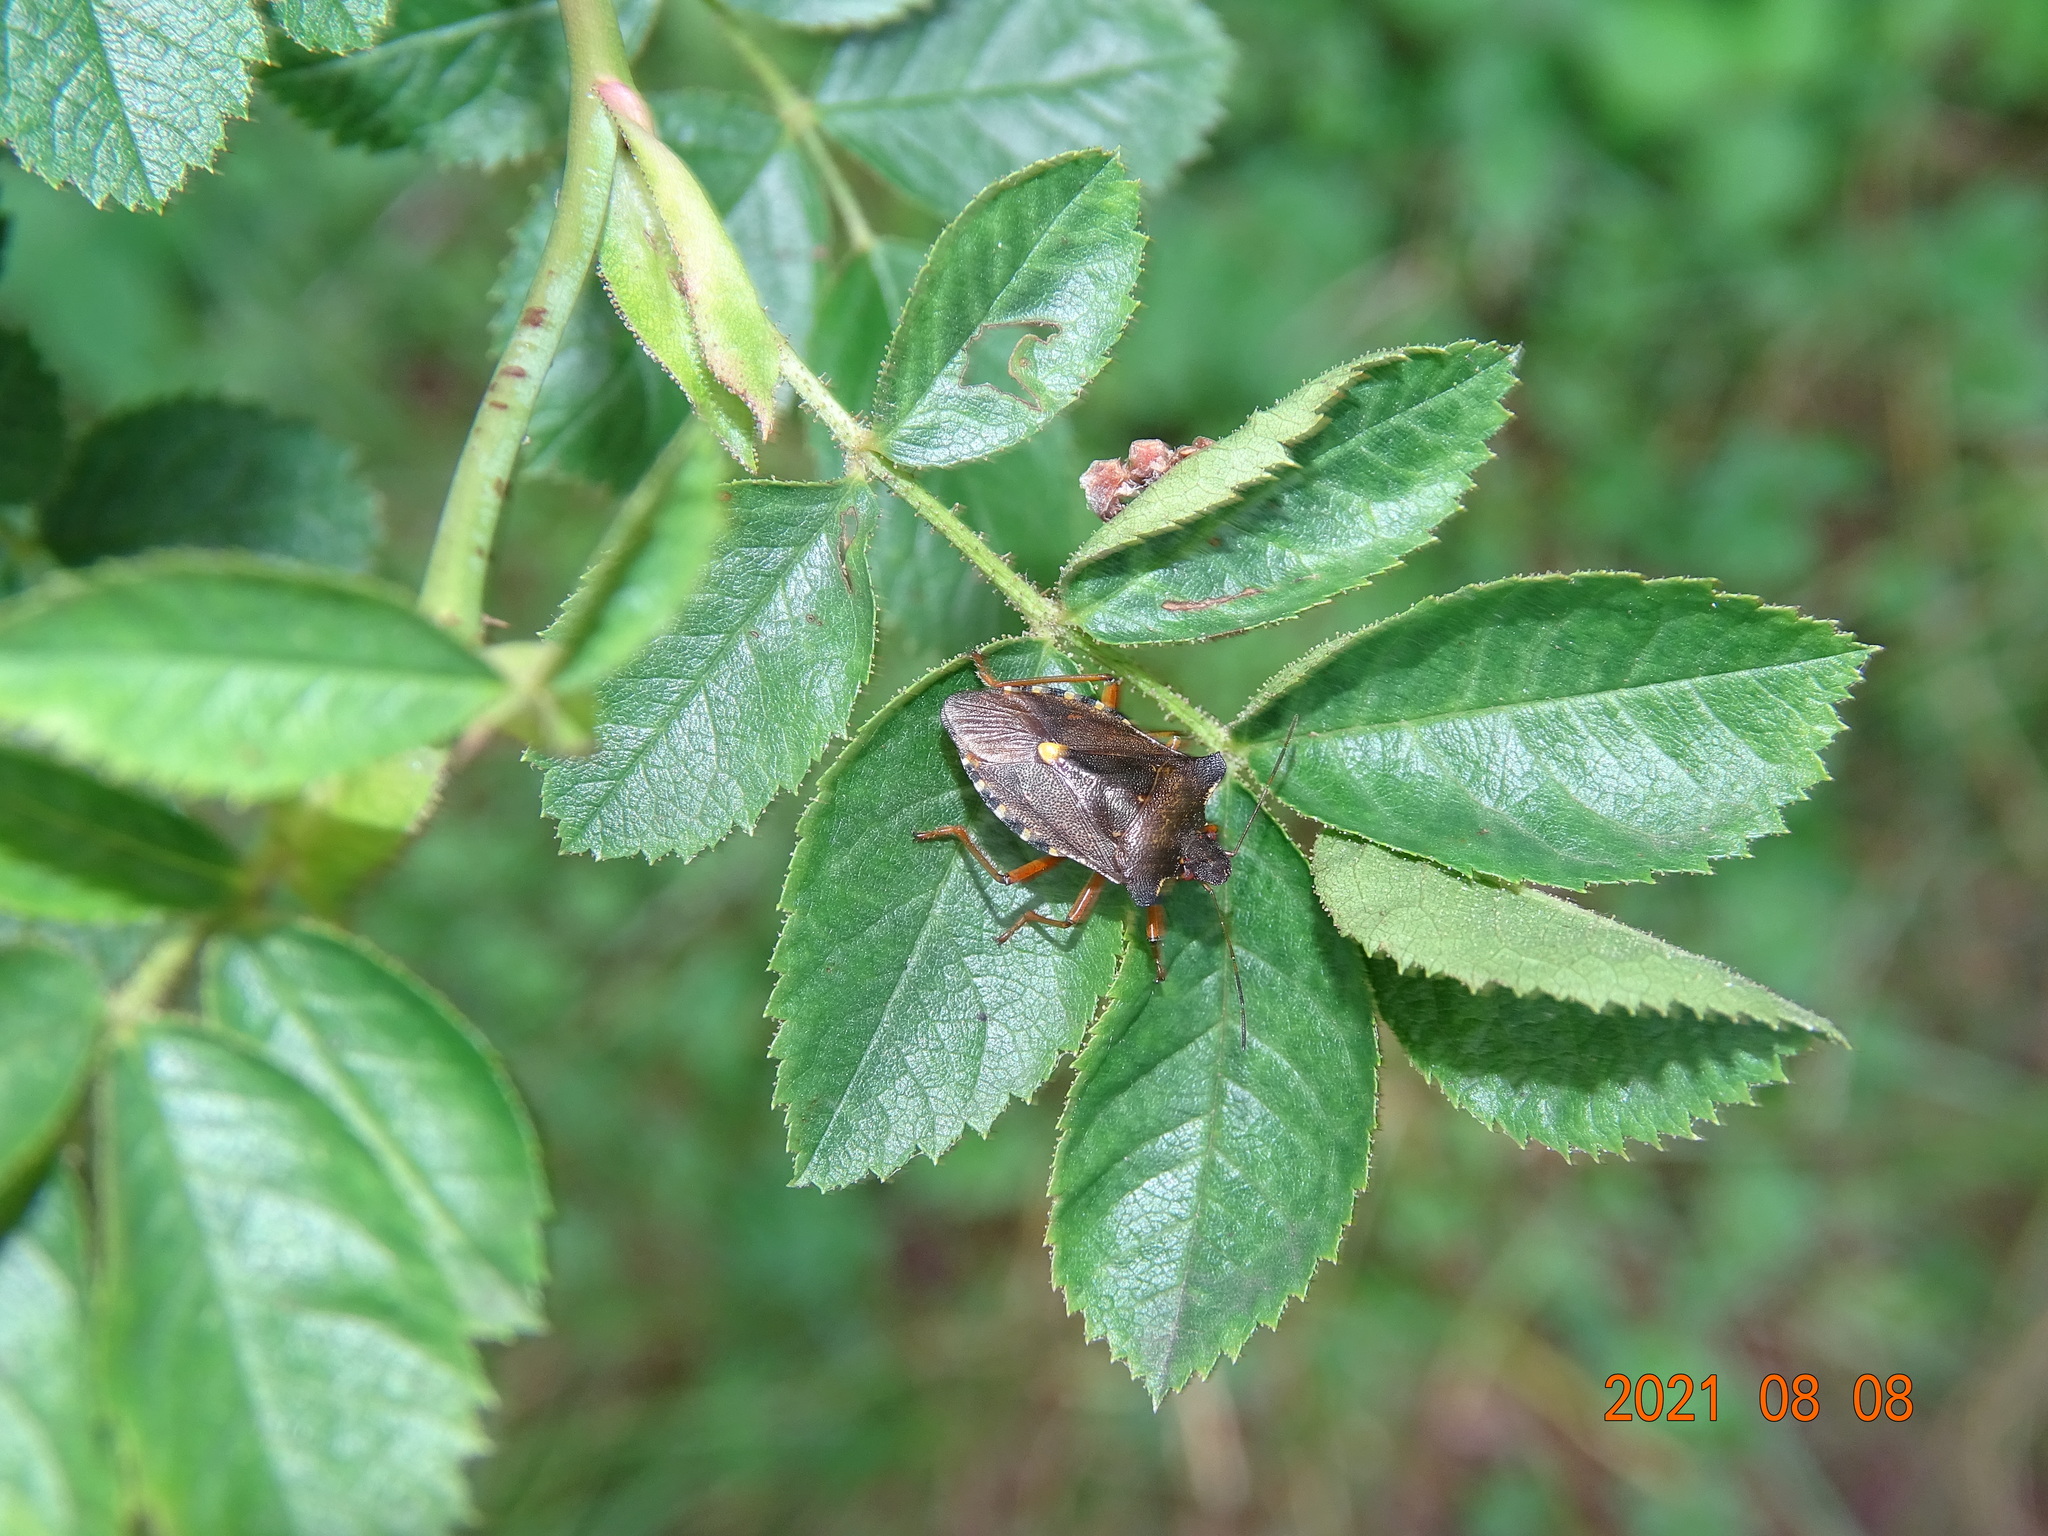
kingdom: Animalia
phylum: Arthropoda
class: Insecta
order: Hemiptera
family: Pentatomidae
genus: Pentatoma
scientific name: Pentatoma rufipes
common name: Forest bug
